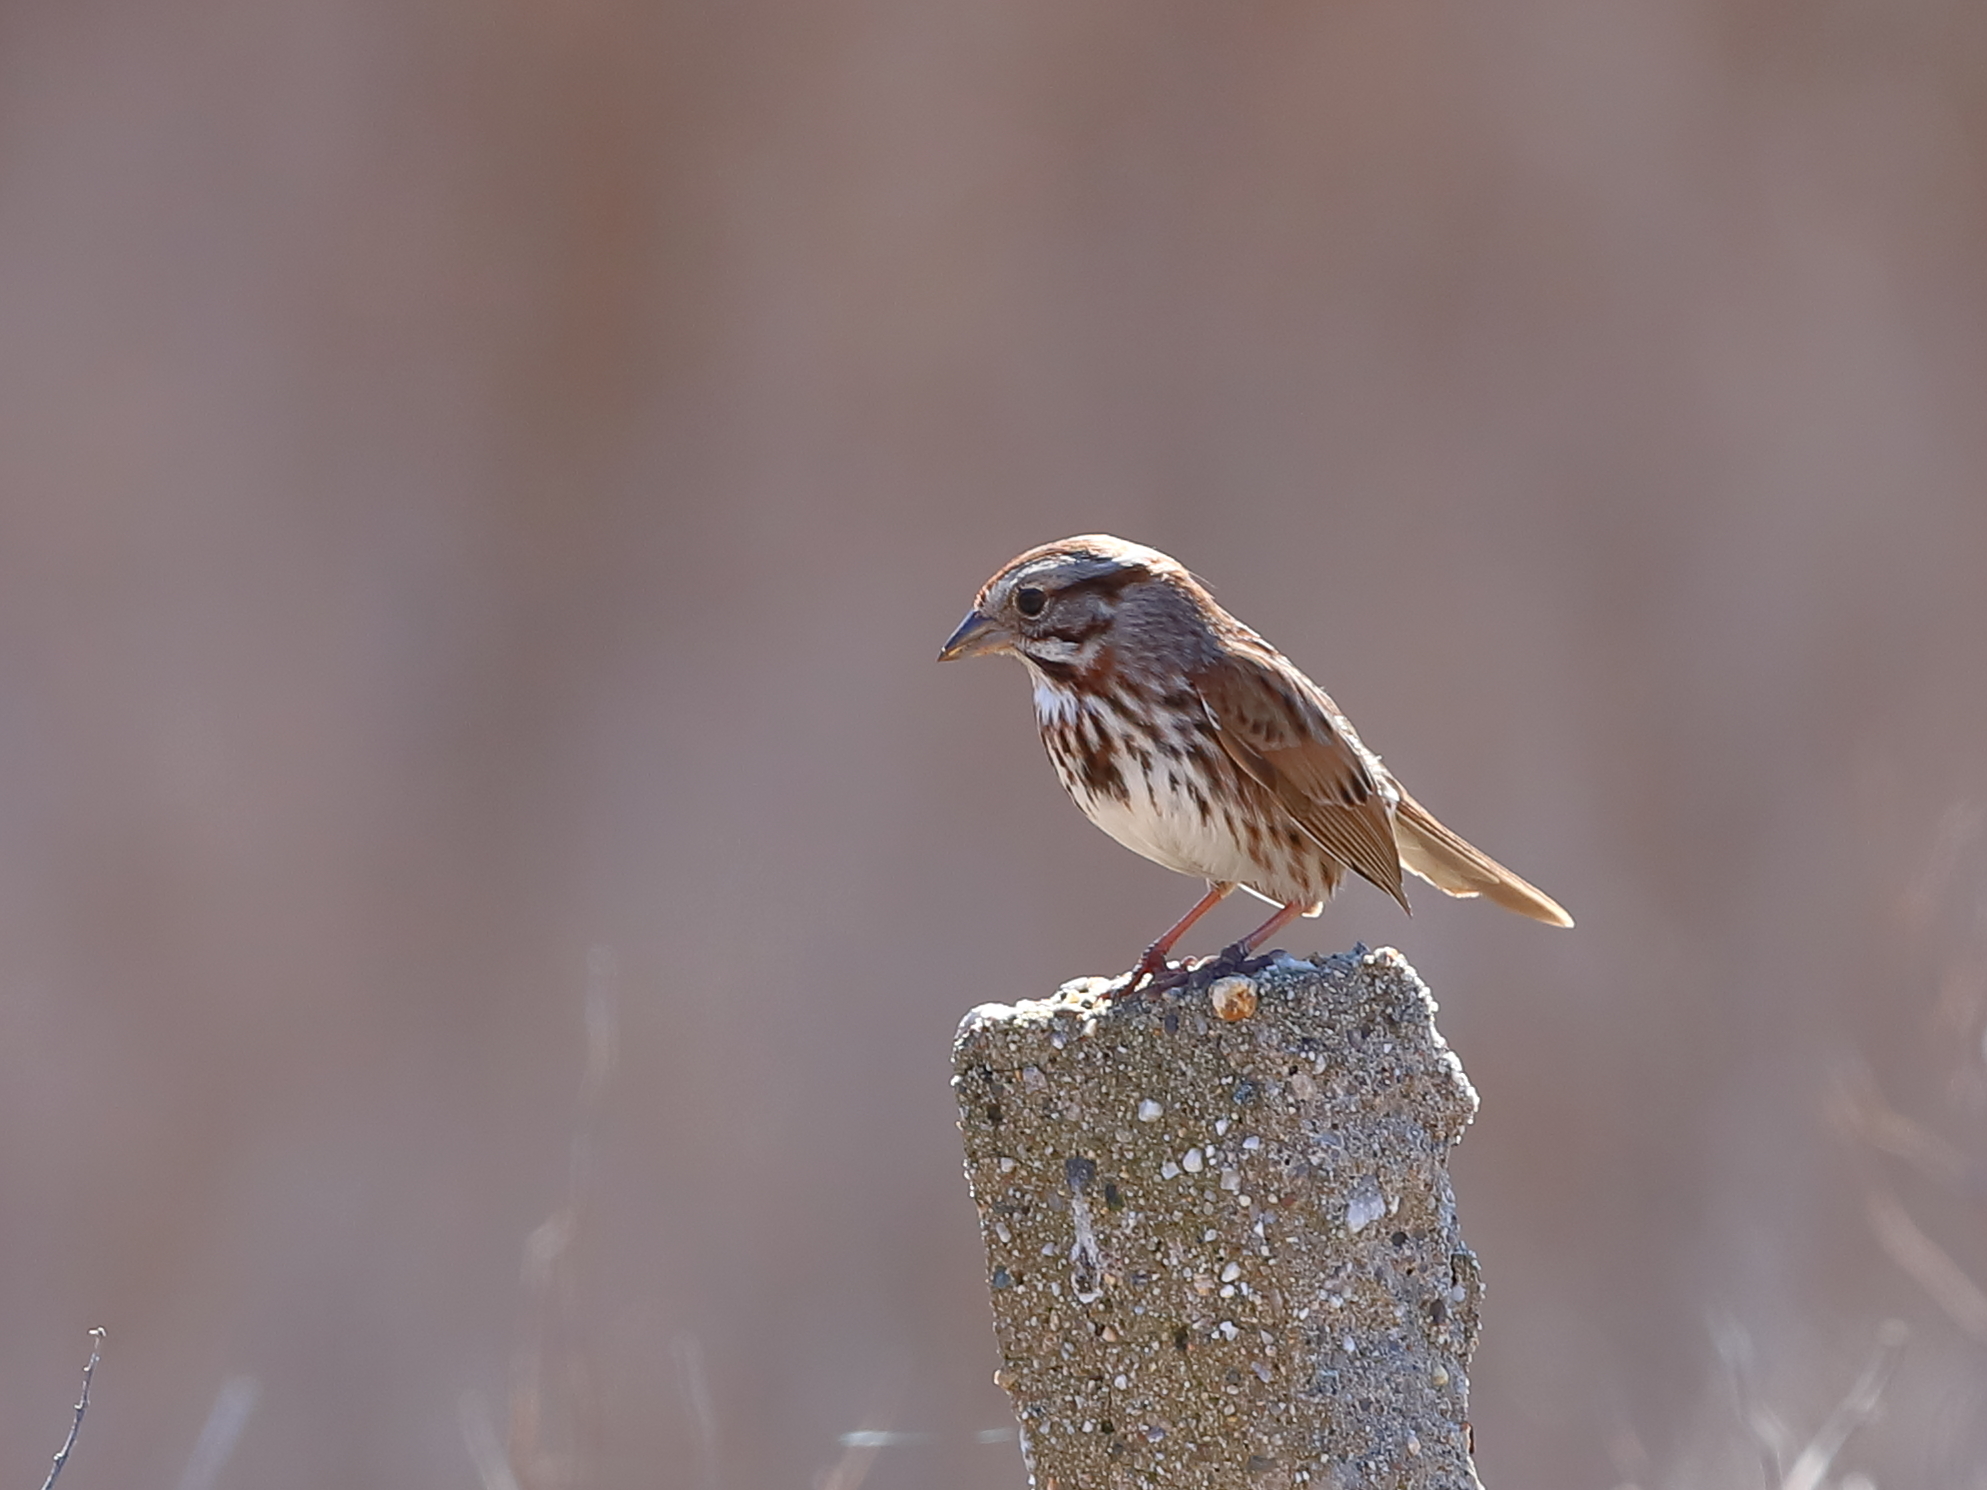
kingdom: Animalia
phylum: Chordata
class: Aves
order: Passeriformes
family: Passerellidae
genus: Melospiza
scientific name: Melospiza melodia
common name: Song sparrow
